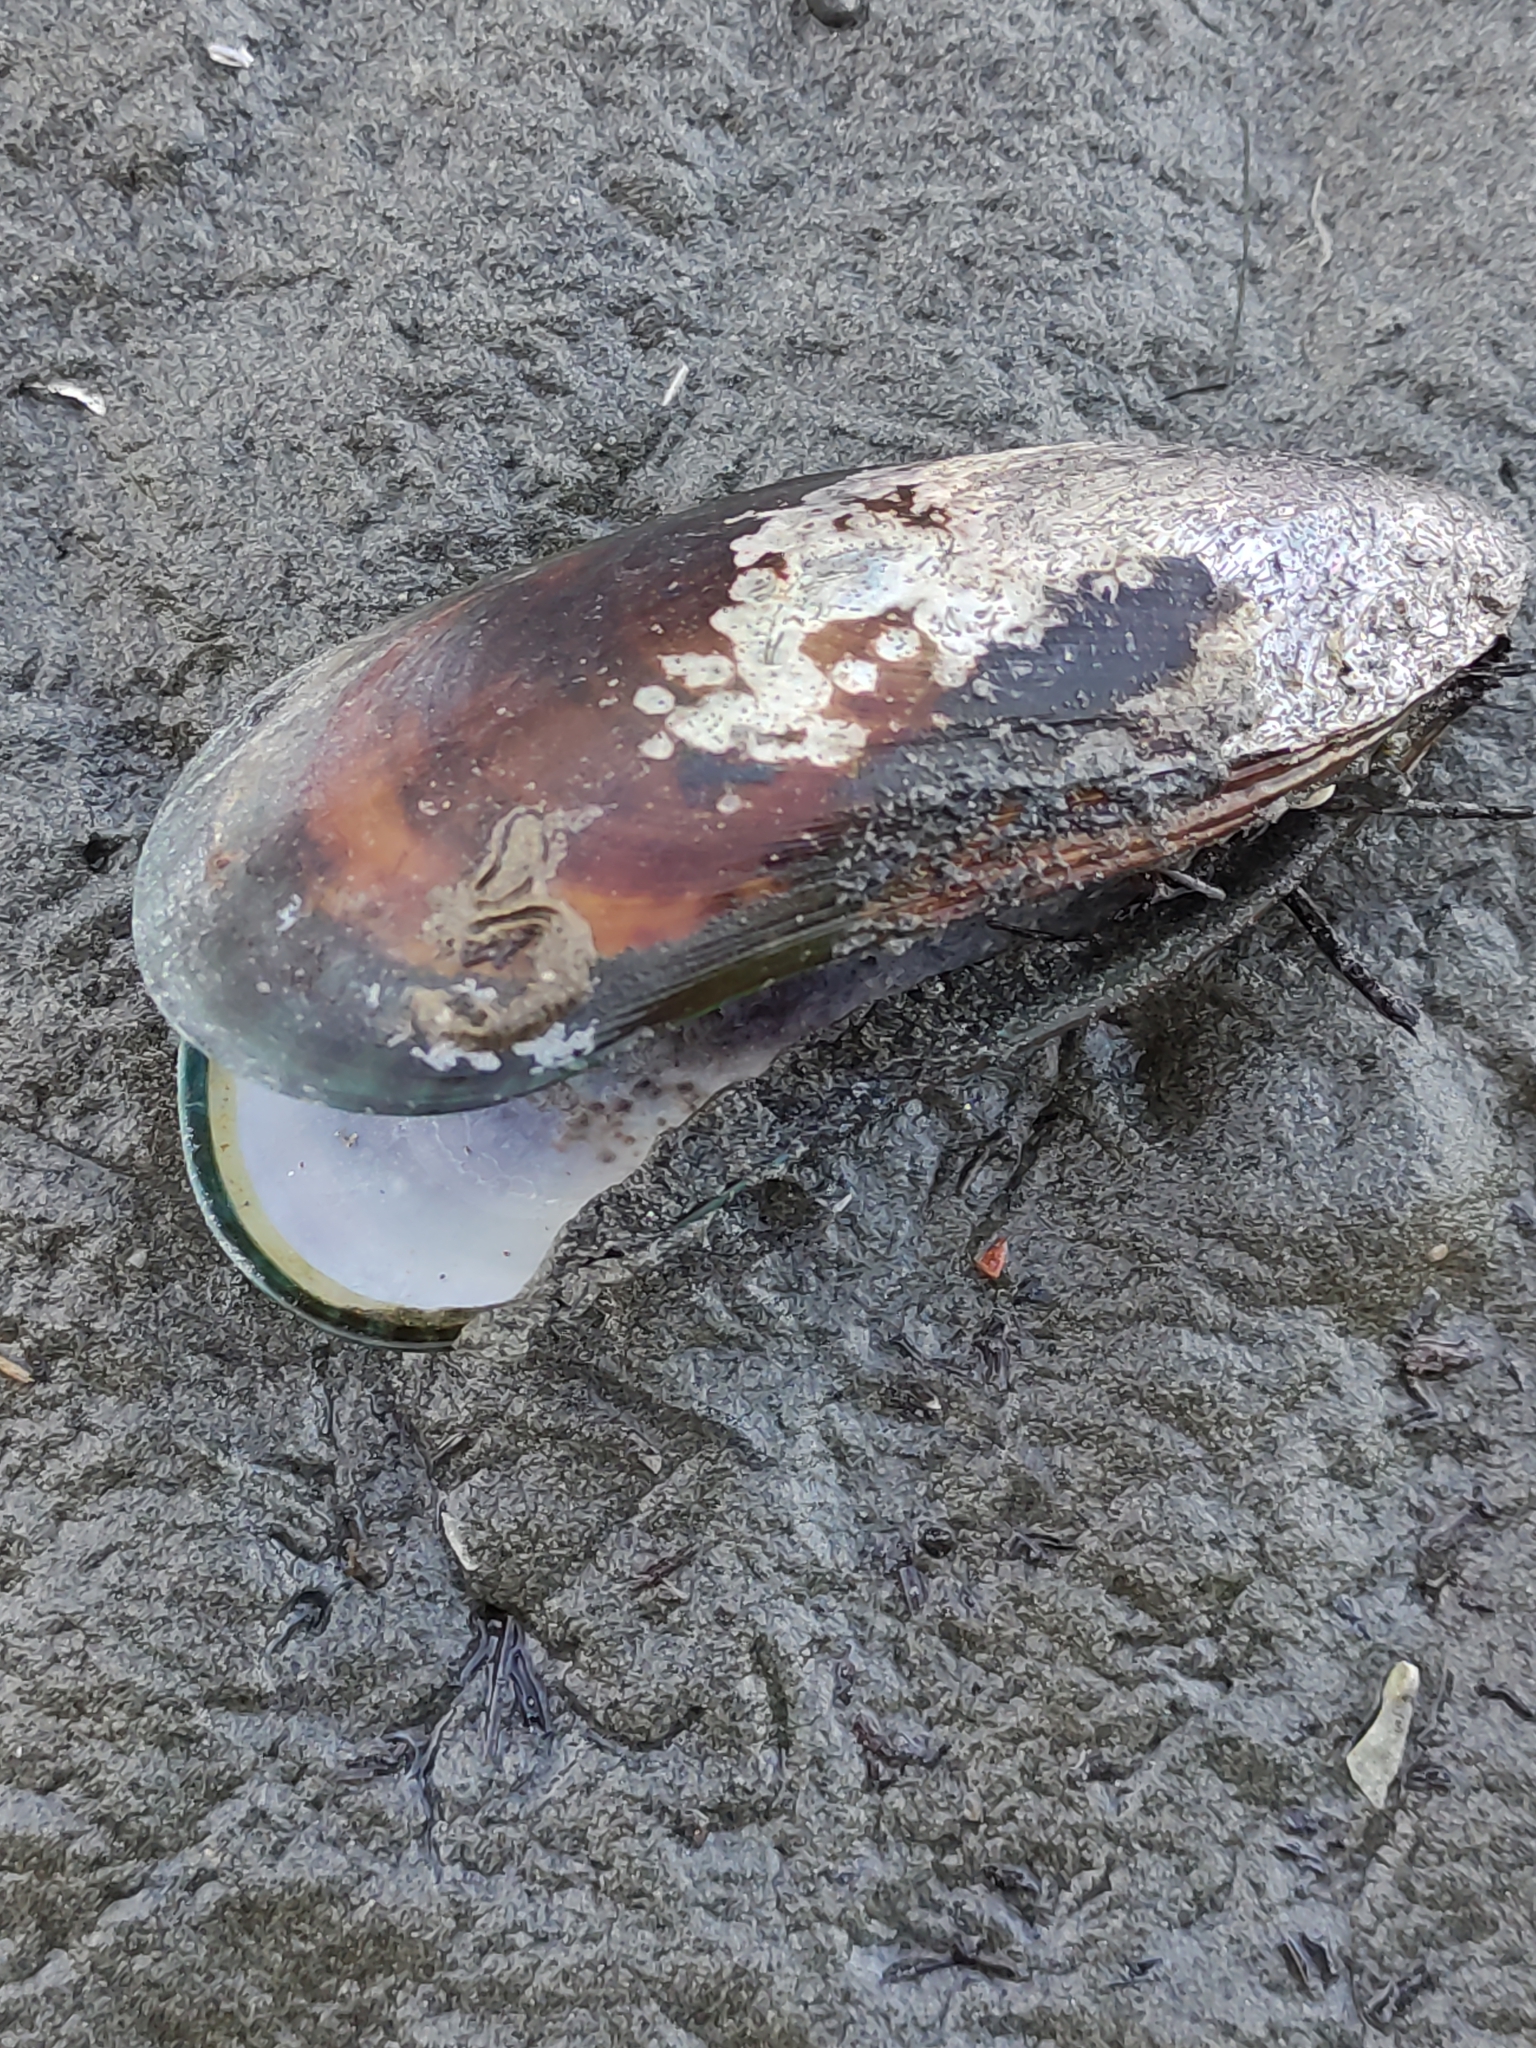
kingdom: Animalia
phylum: Mollusca
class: Bivalvia
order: Mytilida
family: Mytilidae
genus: Perna
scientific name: Perna canaliculus
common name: New zealand greenshelltm
